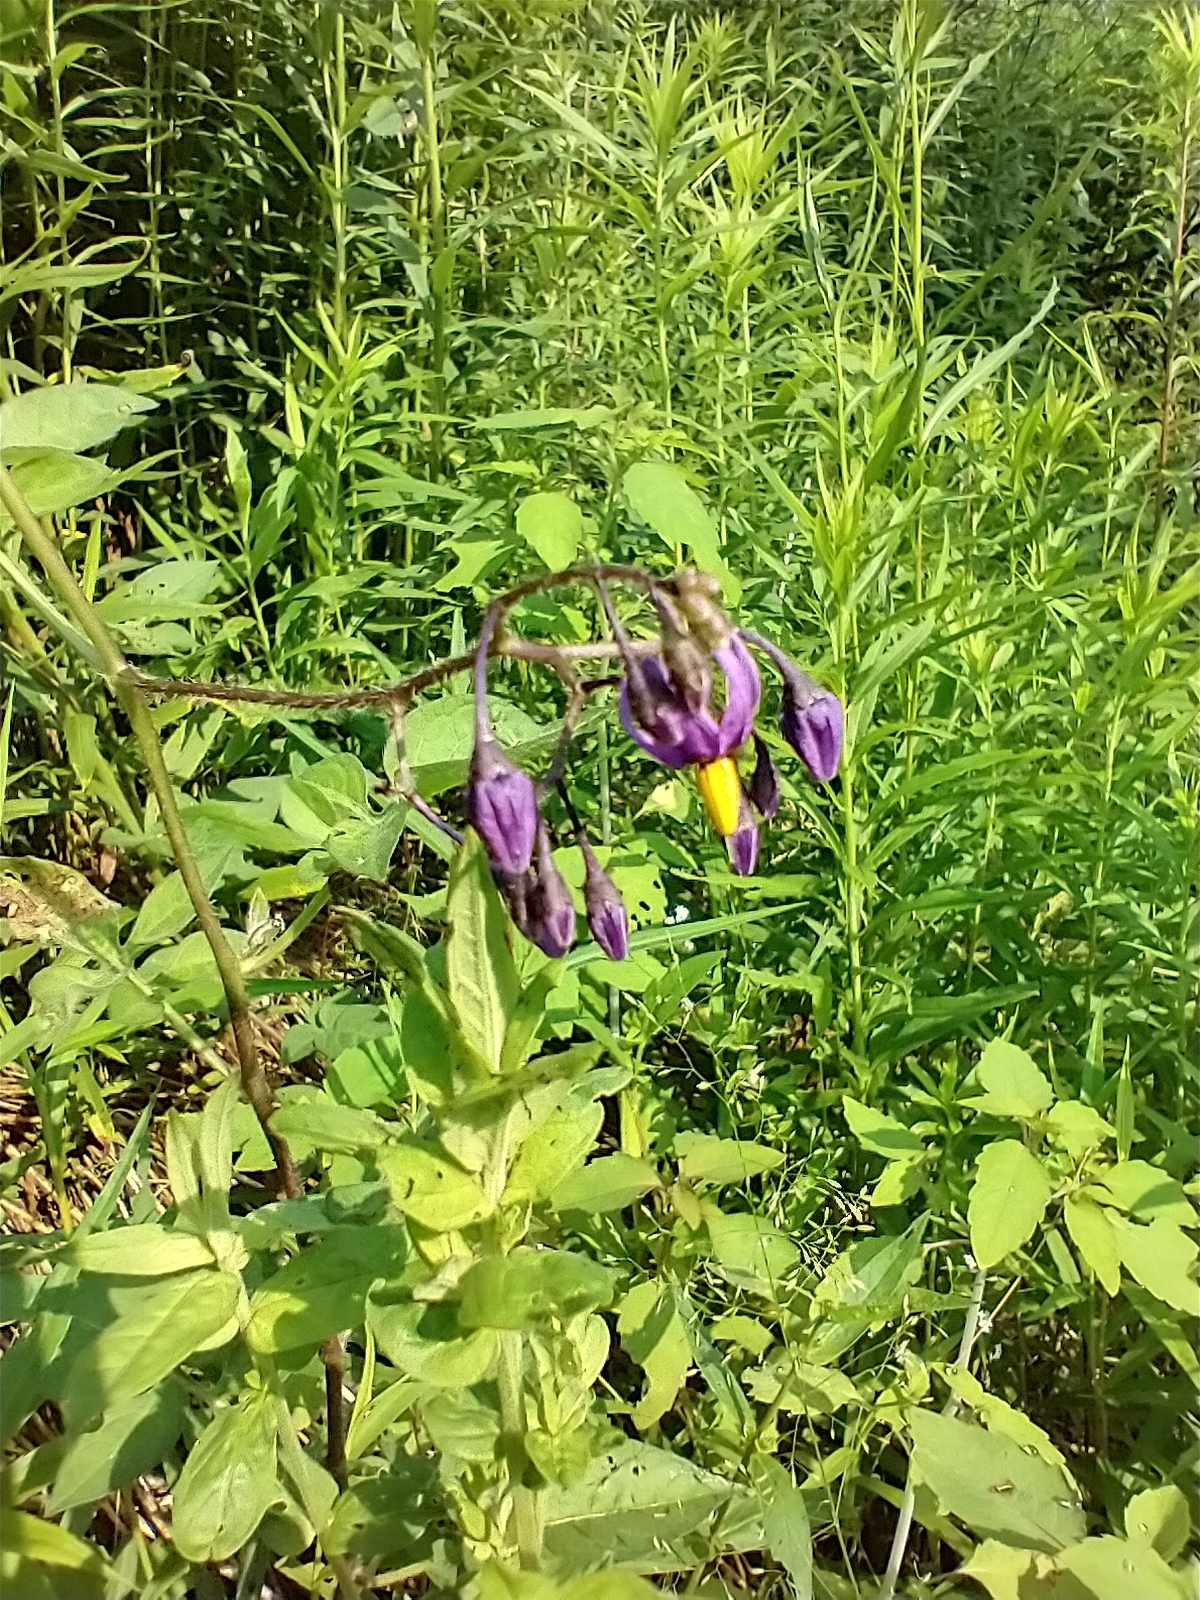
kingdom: Plantae
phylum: Tracheophyta
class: Magnoliopsida
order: Solanales
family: Solanaceae
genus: Solanum
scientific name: Solanum dulcamara
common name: Climbing nightshade
